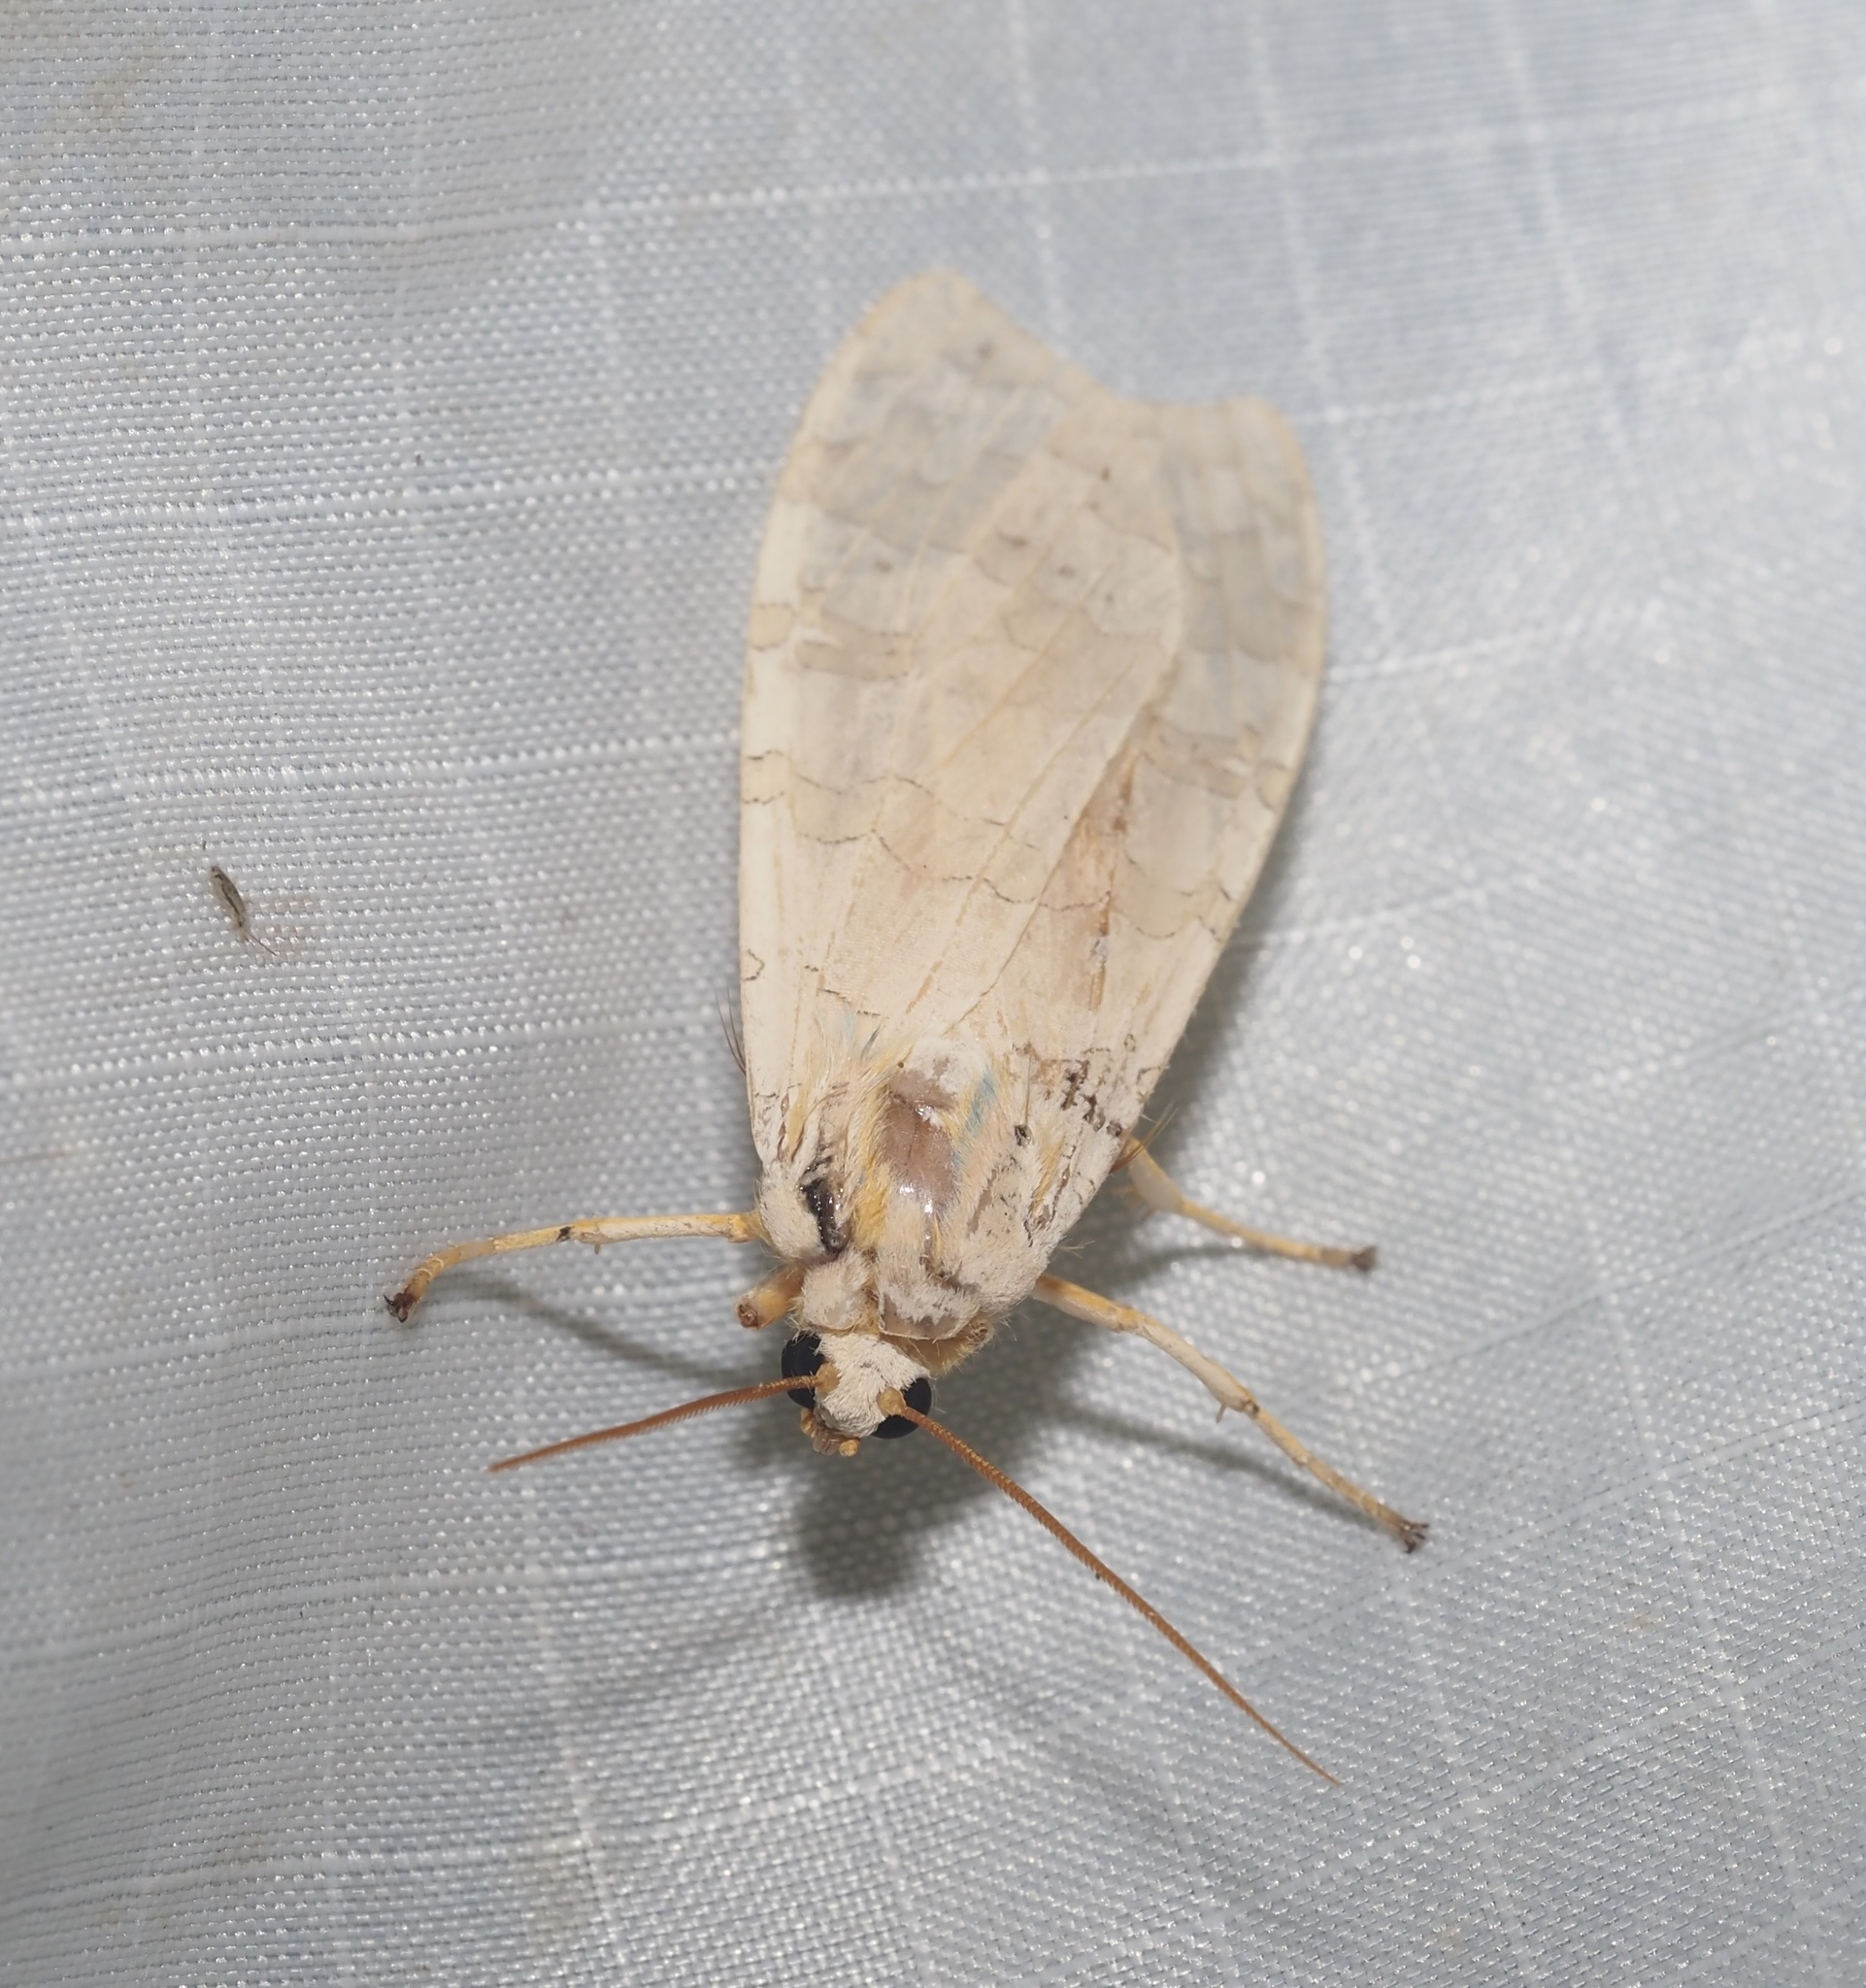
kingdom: Animalia
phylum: Arthropoda
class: Insecta
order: Lepidoptera
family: Erebidae
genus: Halysidota
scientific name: Halysidota
